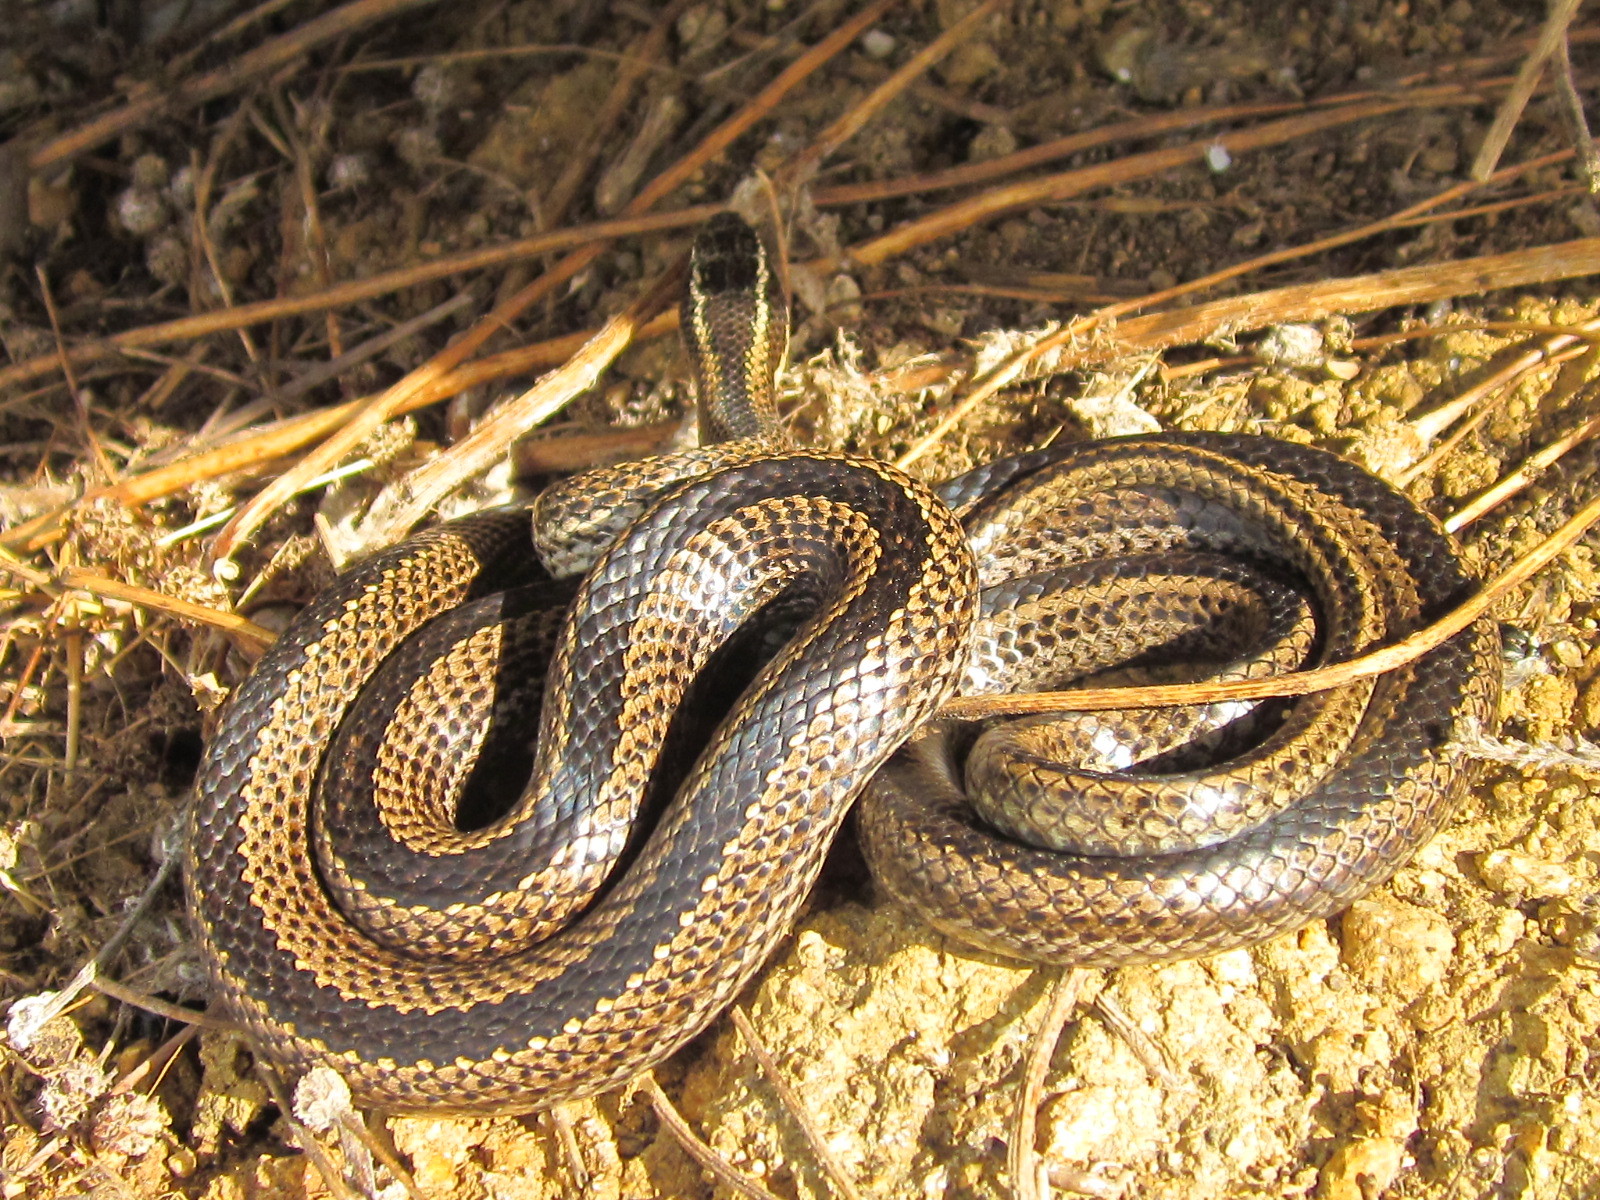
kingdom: Animalia
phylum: Chordata
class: Squamata
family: Colubridae
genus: Philodryas
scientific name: Philodryas chamissonis
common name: Chilean green racer
